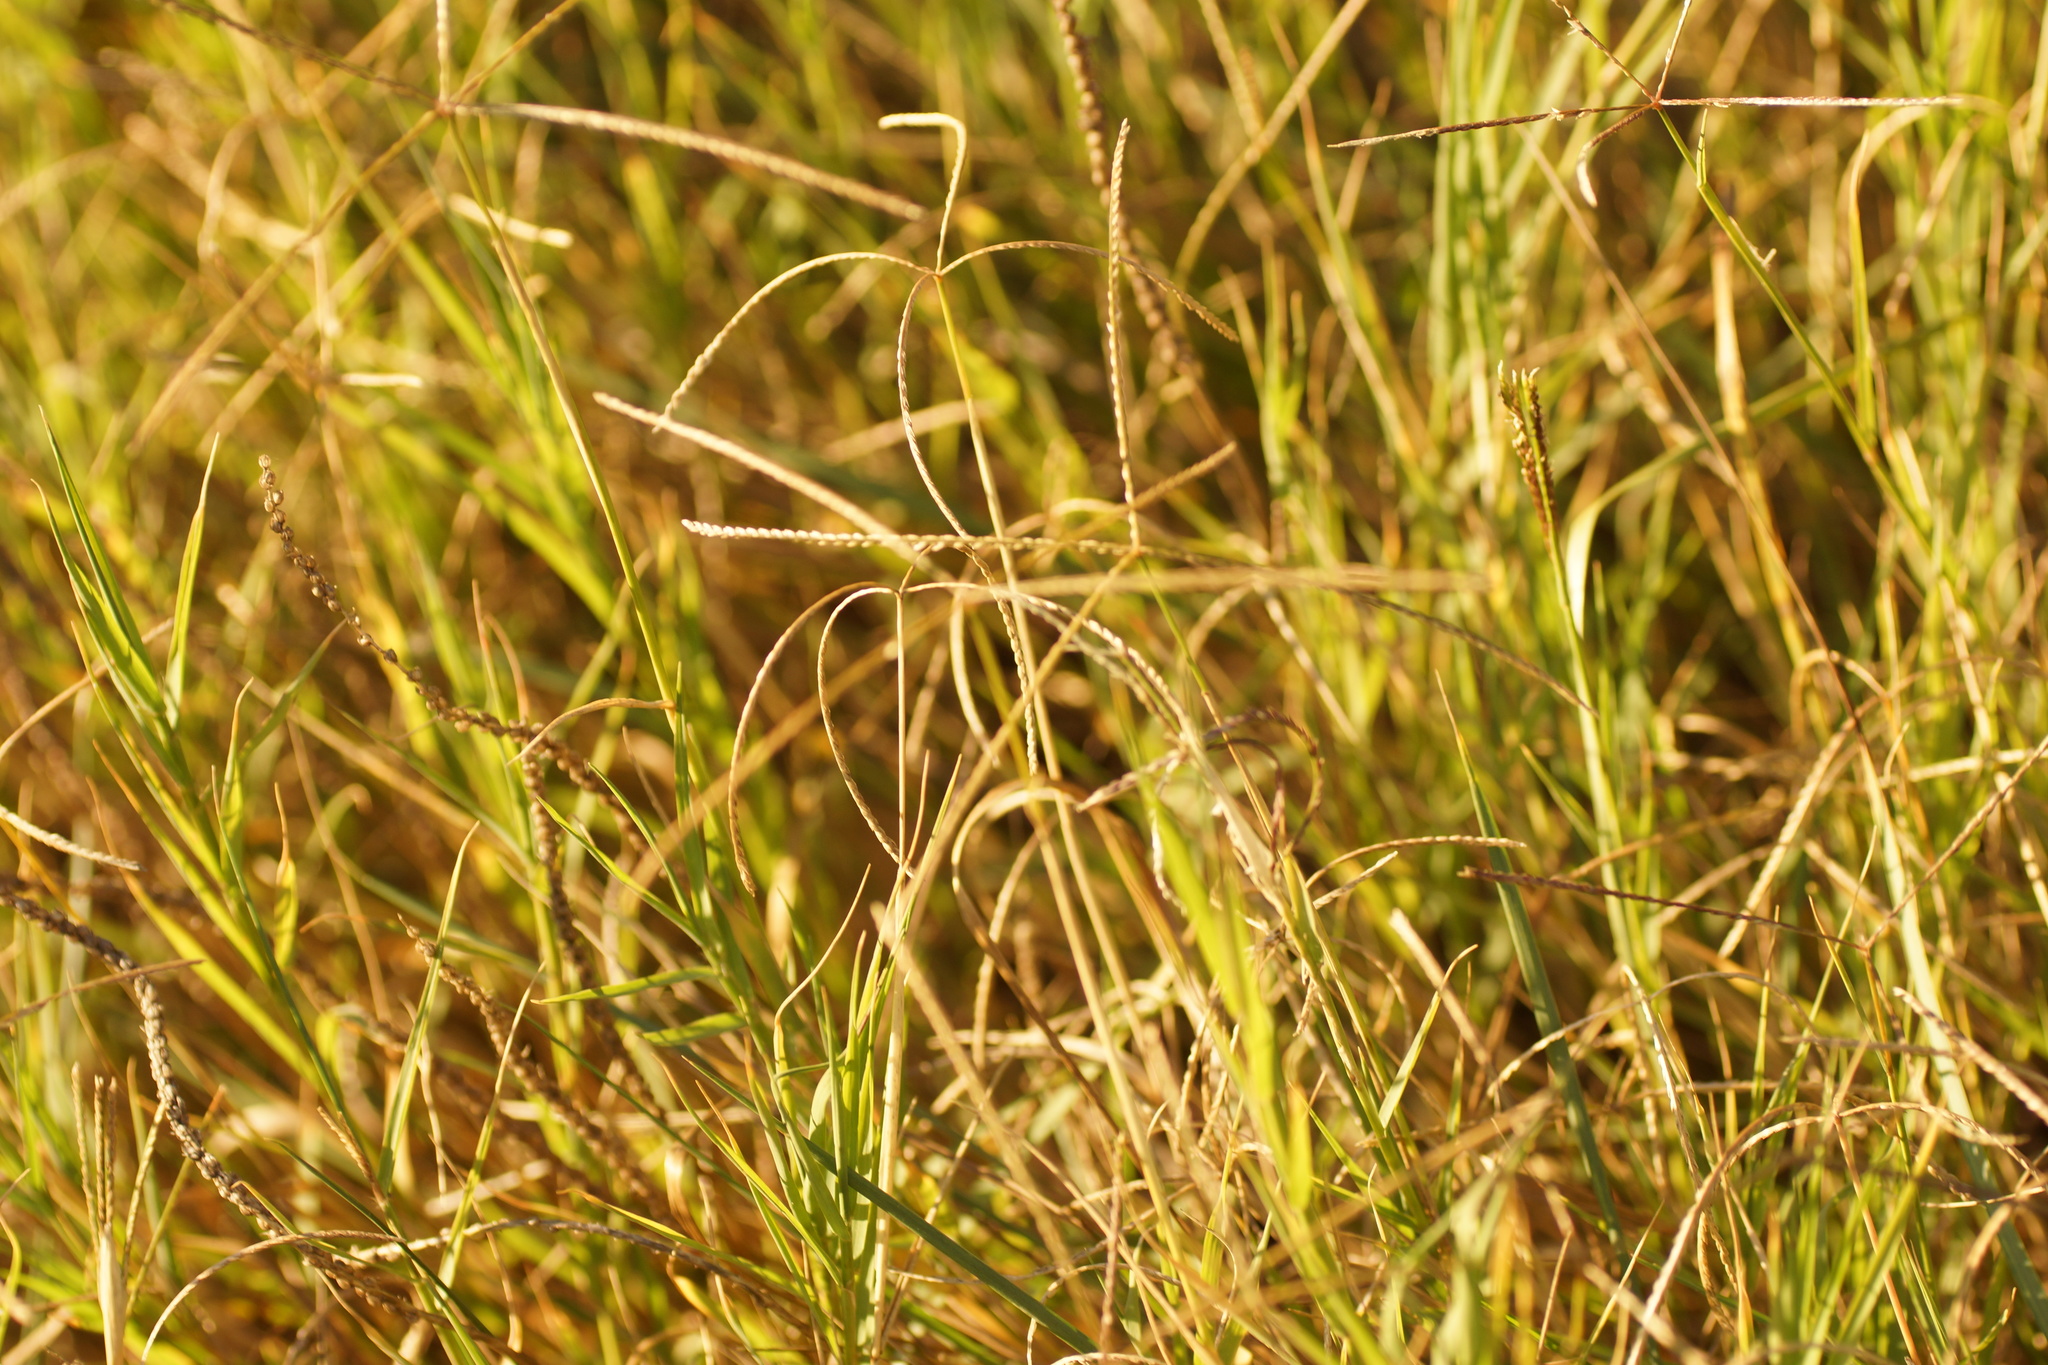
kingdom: Plantae
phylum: Tracheophyta
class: Liliopsida
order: Poales
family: Poaceae
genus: Cynodon
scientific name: Cynodon dactylon
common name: Bermuda grass
